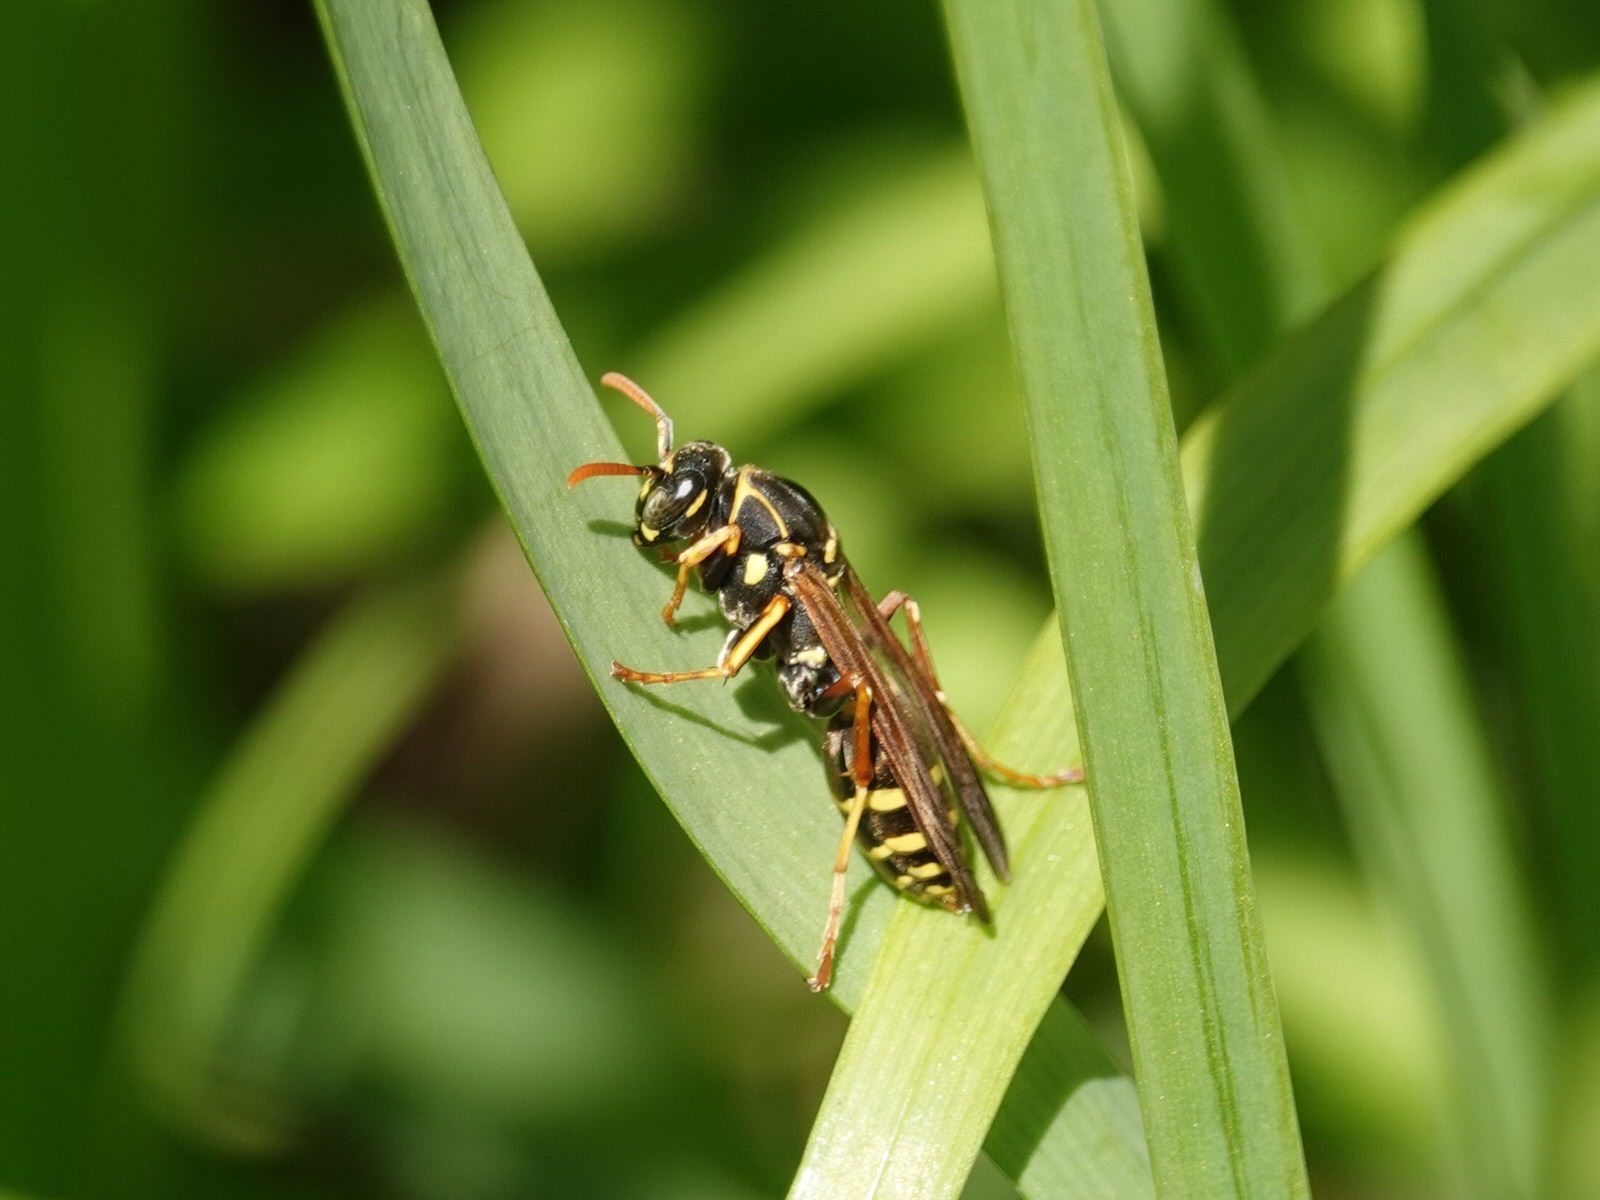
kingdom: Animalia
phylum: Arthropoda
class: Insecta
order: Hymenoptera
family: Eumenidae
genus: Polistes
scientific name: Polistes chinensis
